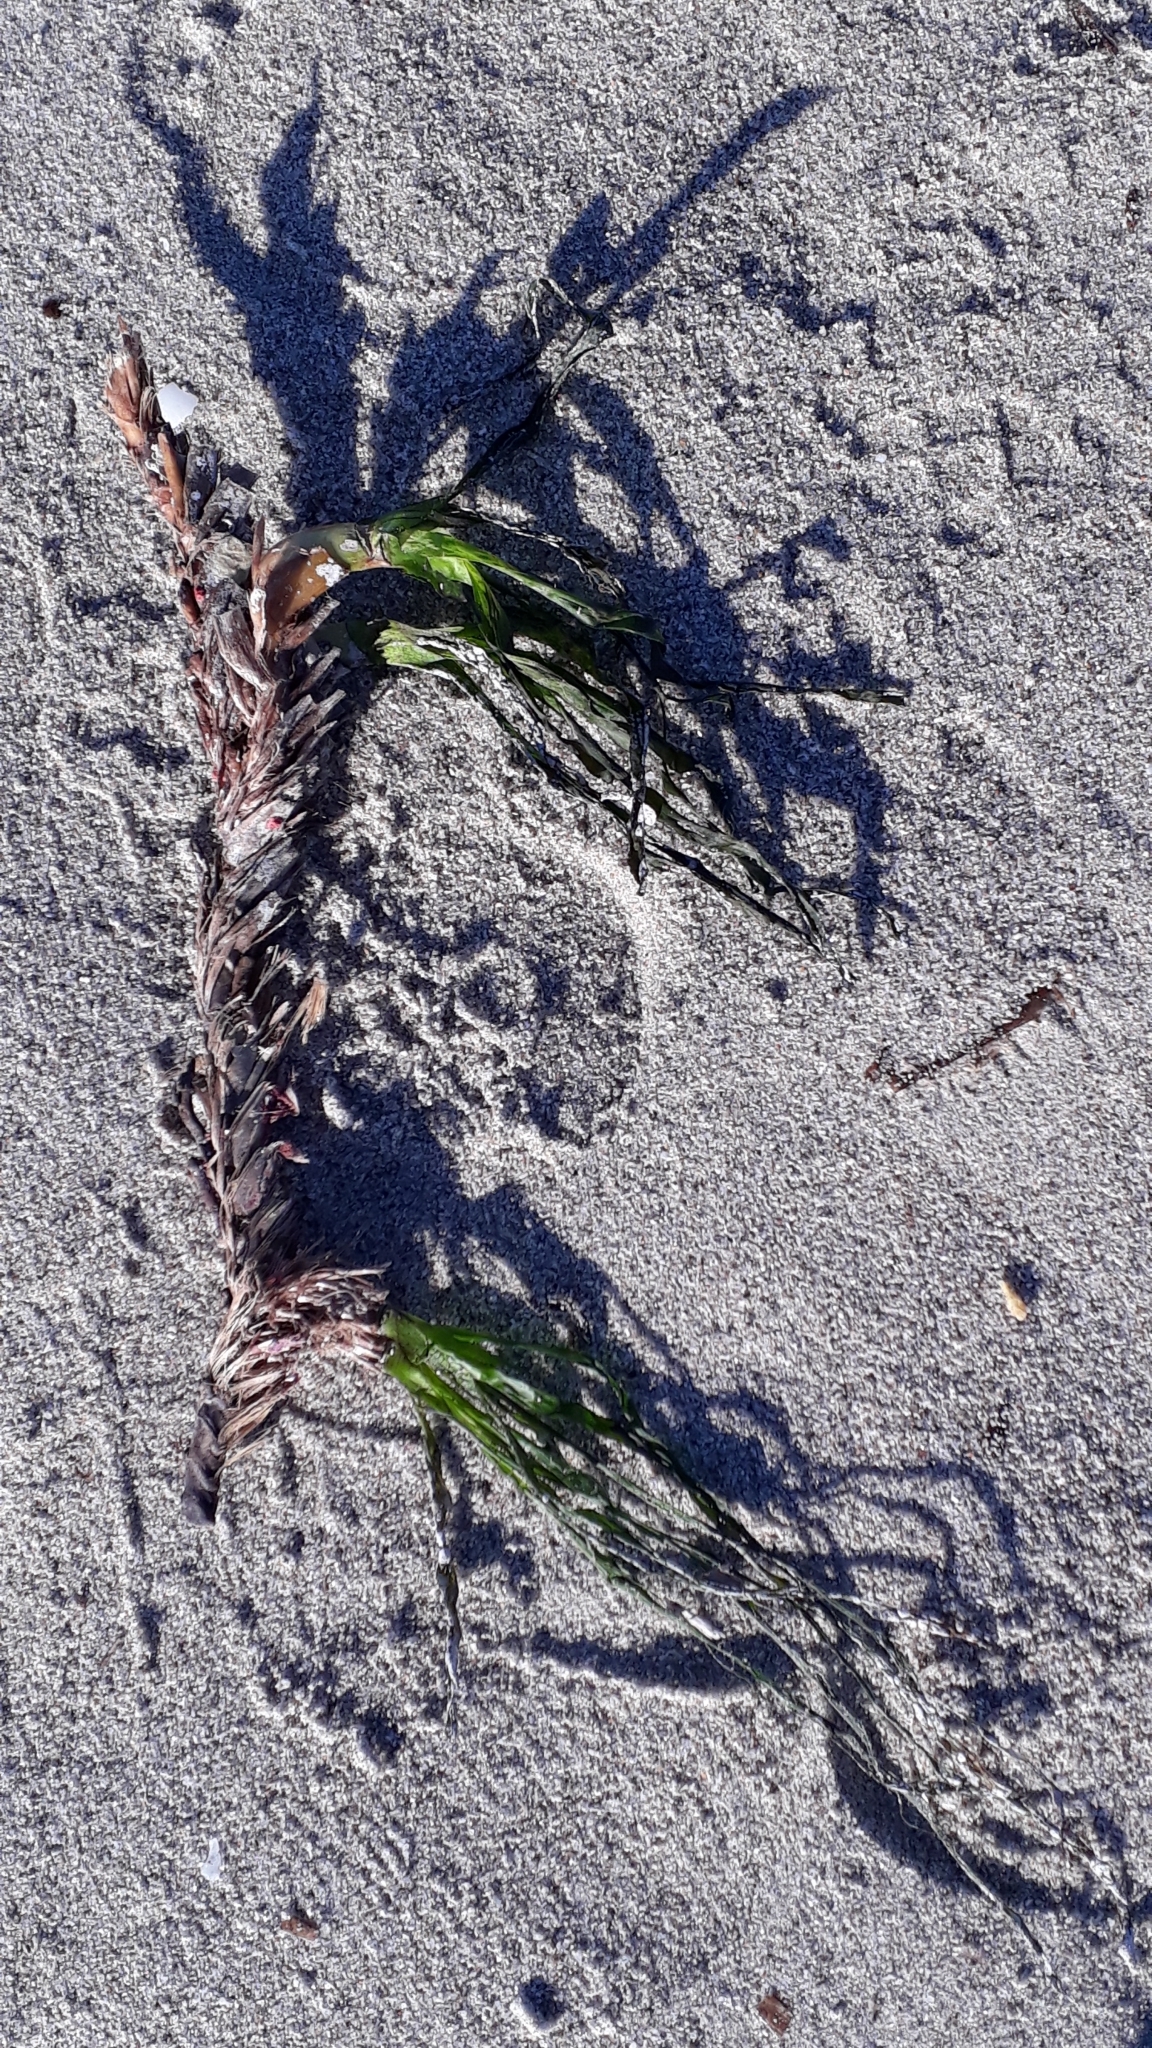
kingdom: Plantae
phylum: Tracheophyta
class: Liliopsida
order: Alismatales
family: Posidoniaceae
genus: Posidonia
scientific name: Posidonia oceanica
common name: Mediterranean tapeweed
